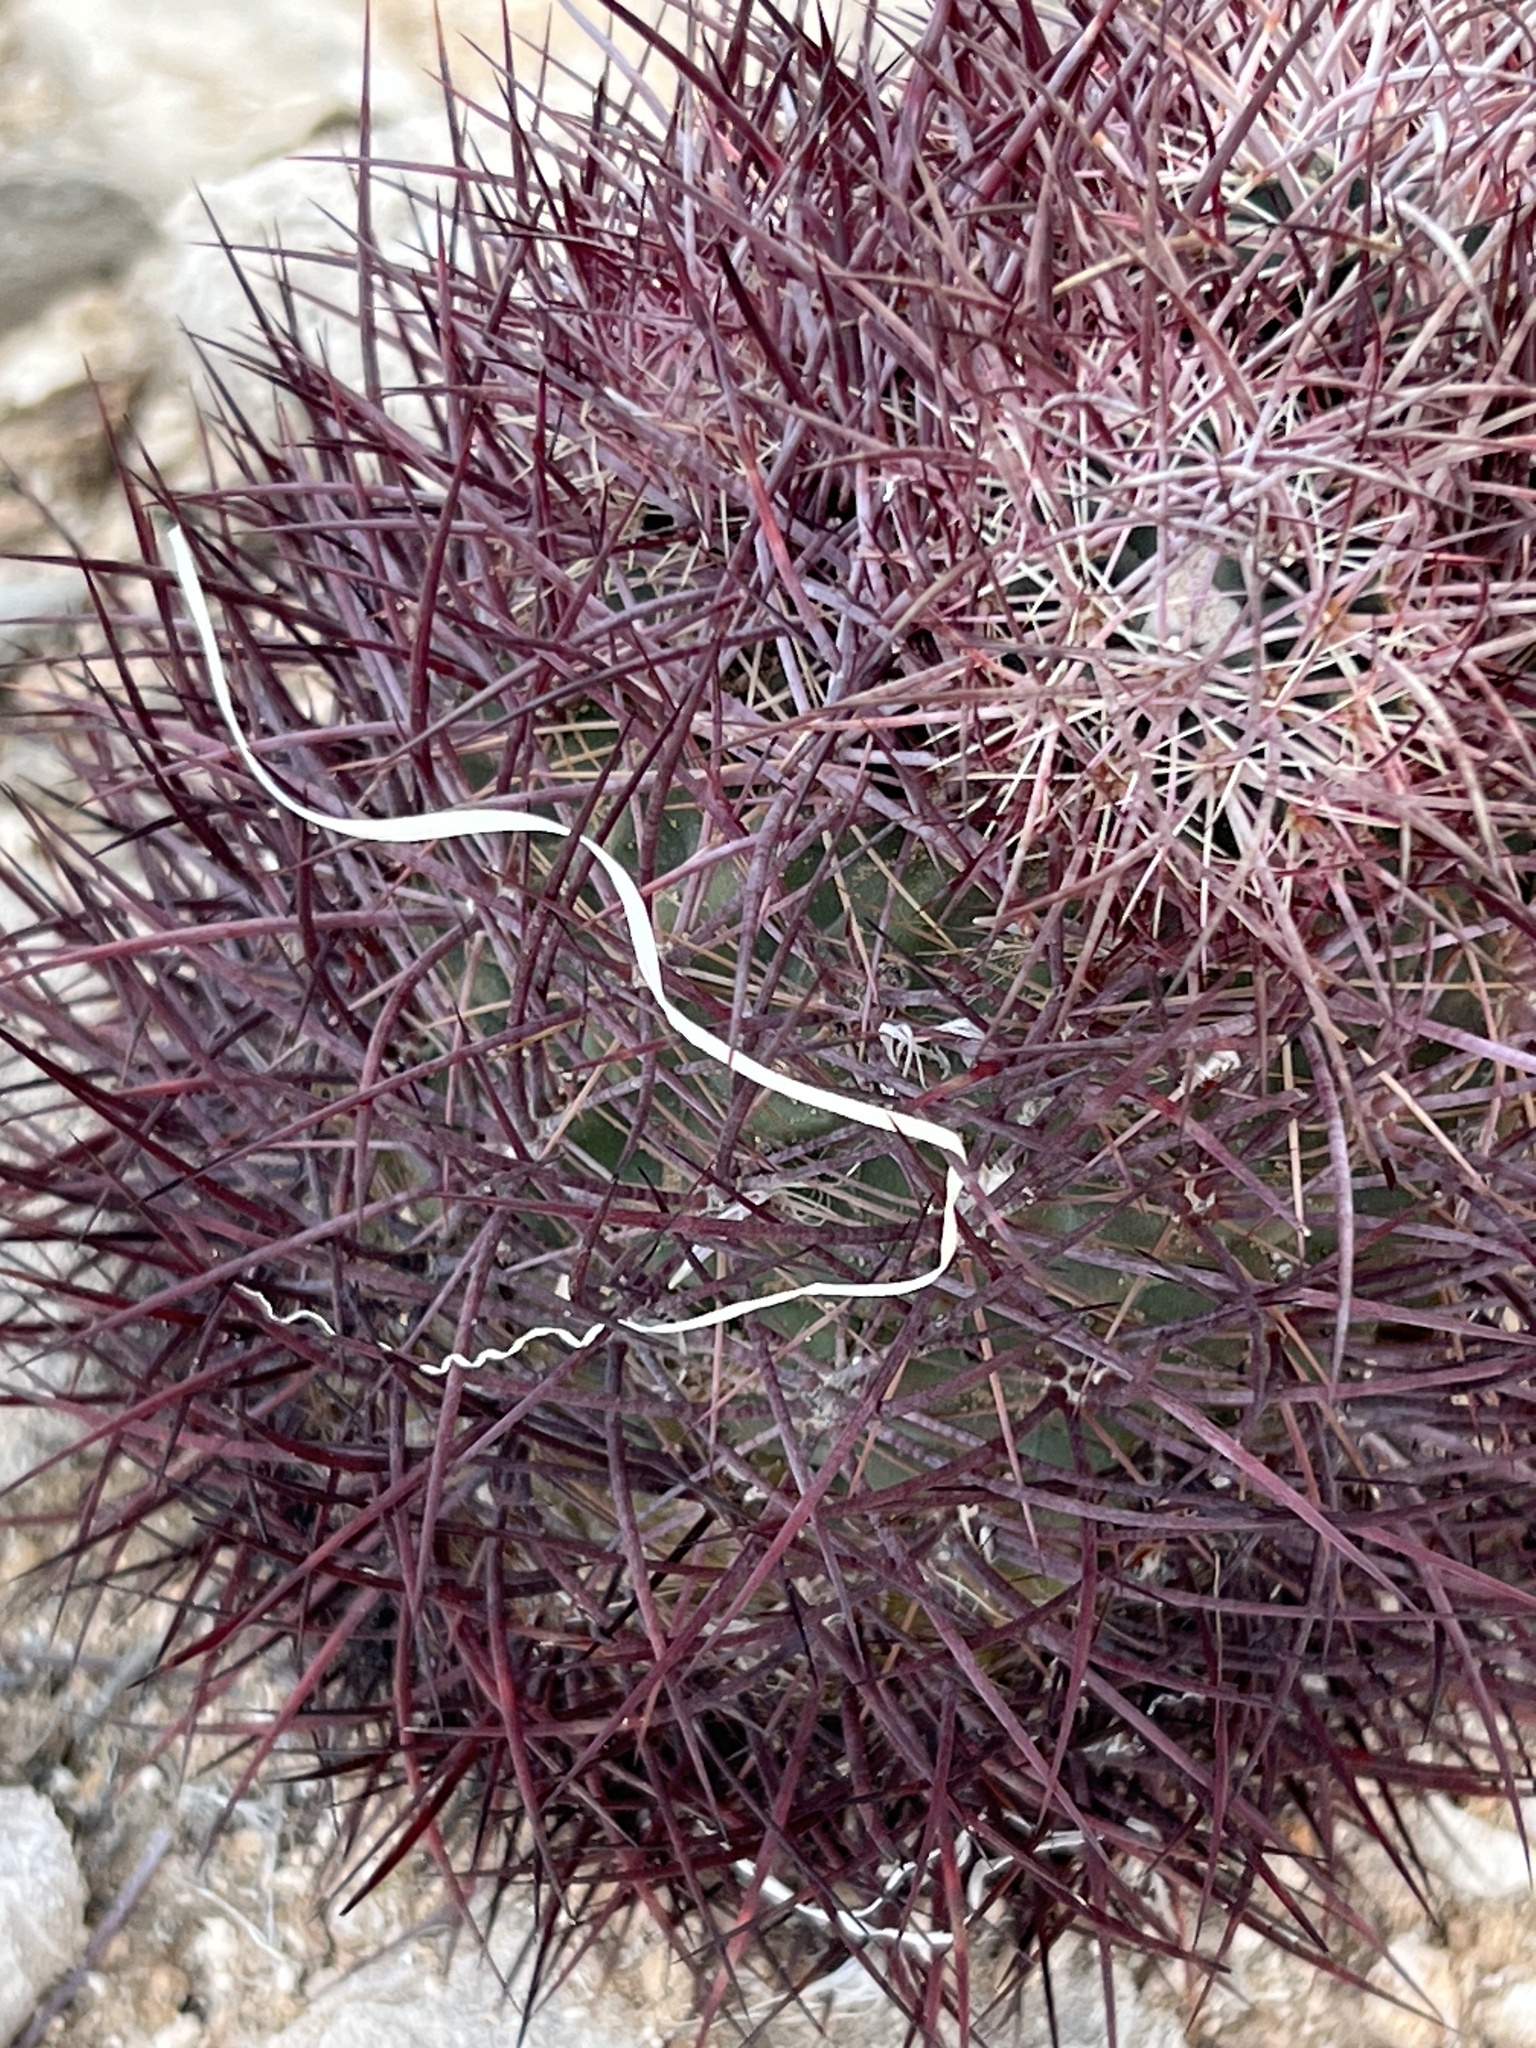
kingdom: Plantae
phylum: Tracheophyta
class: Magnoliopsida
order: Caryophyllales
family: Cactaceae
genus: Sclerocactus
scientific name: Sclerocactus johnsonii
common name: Eight-spine fishhook cactus
